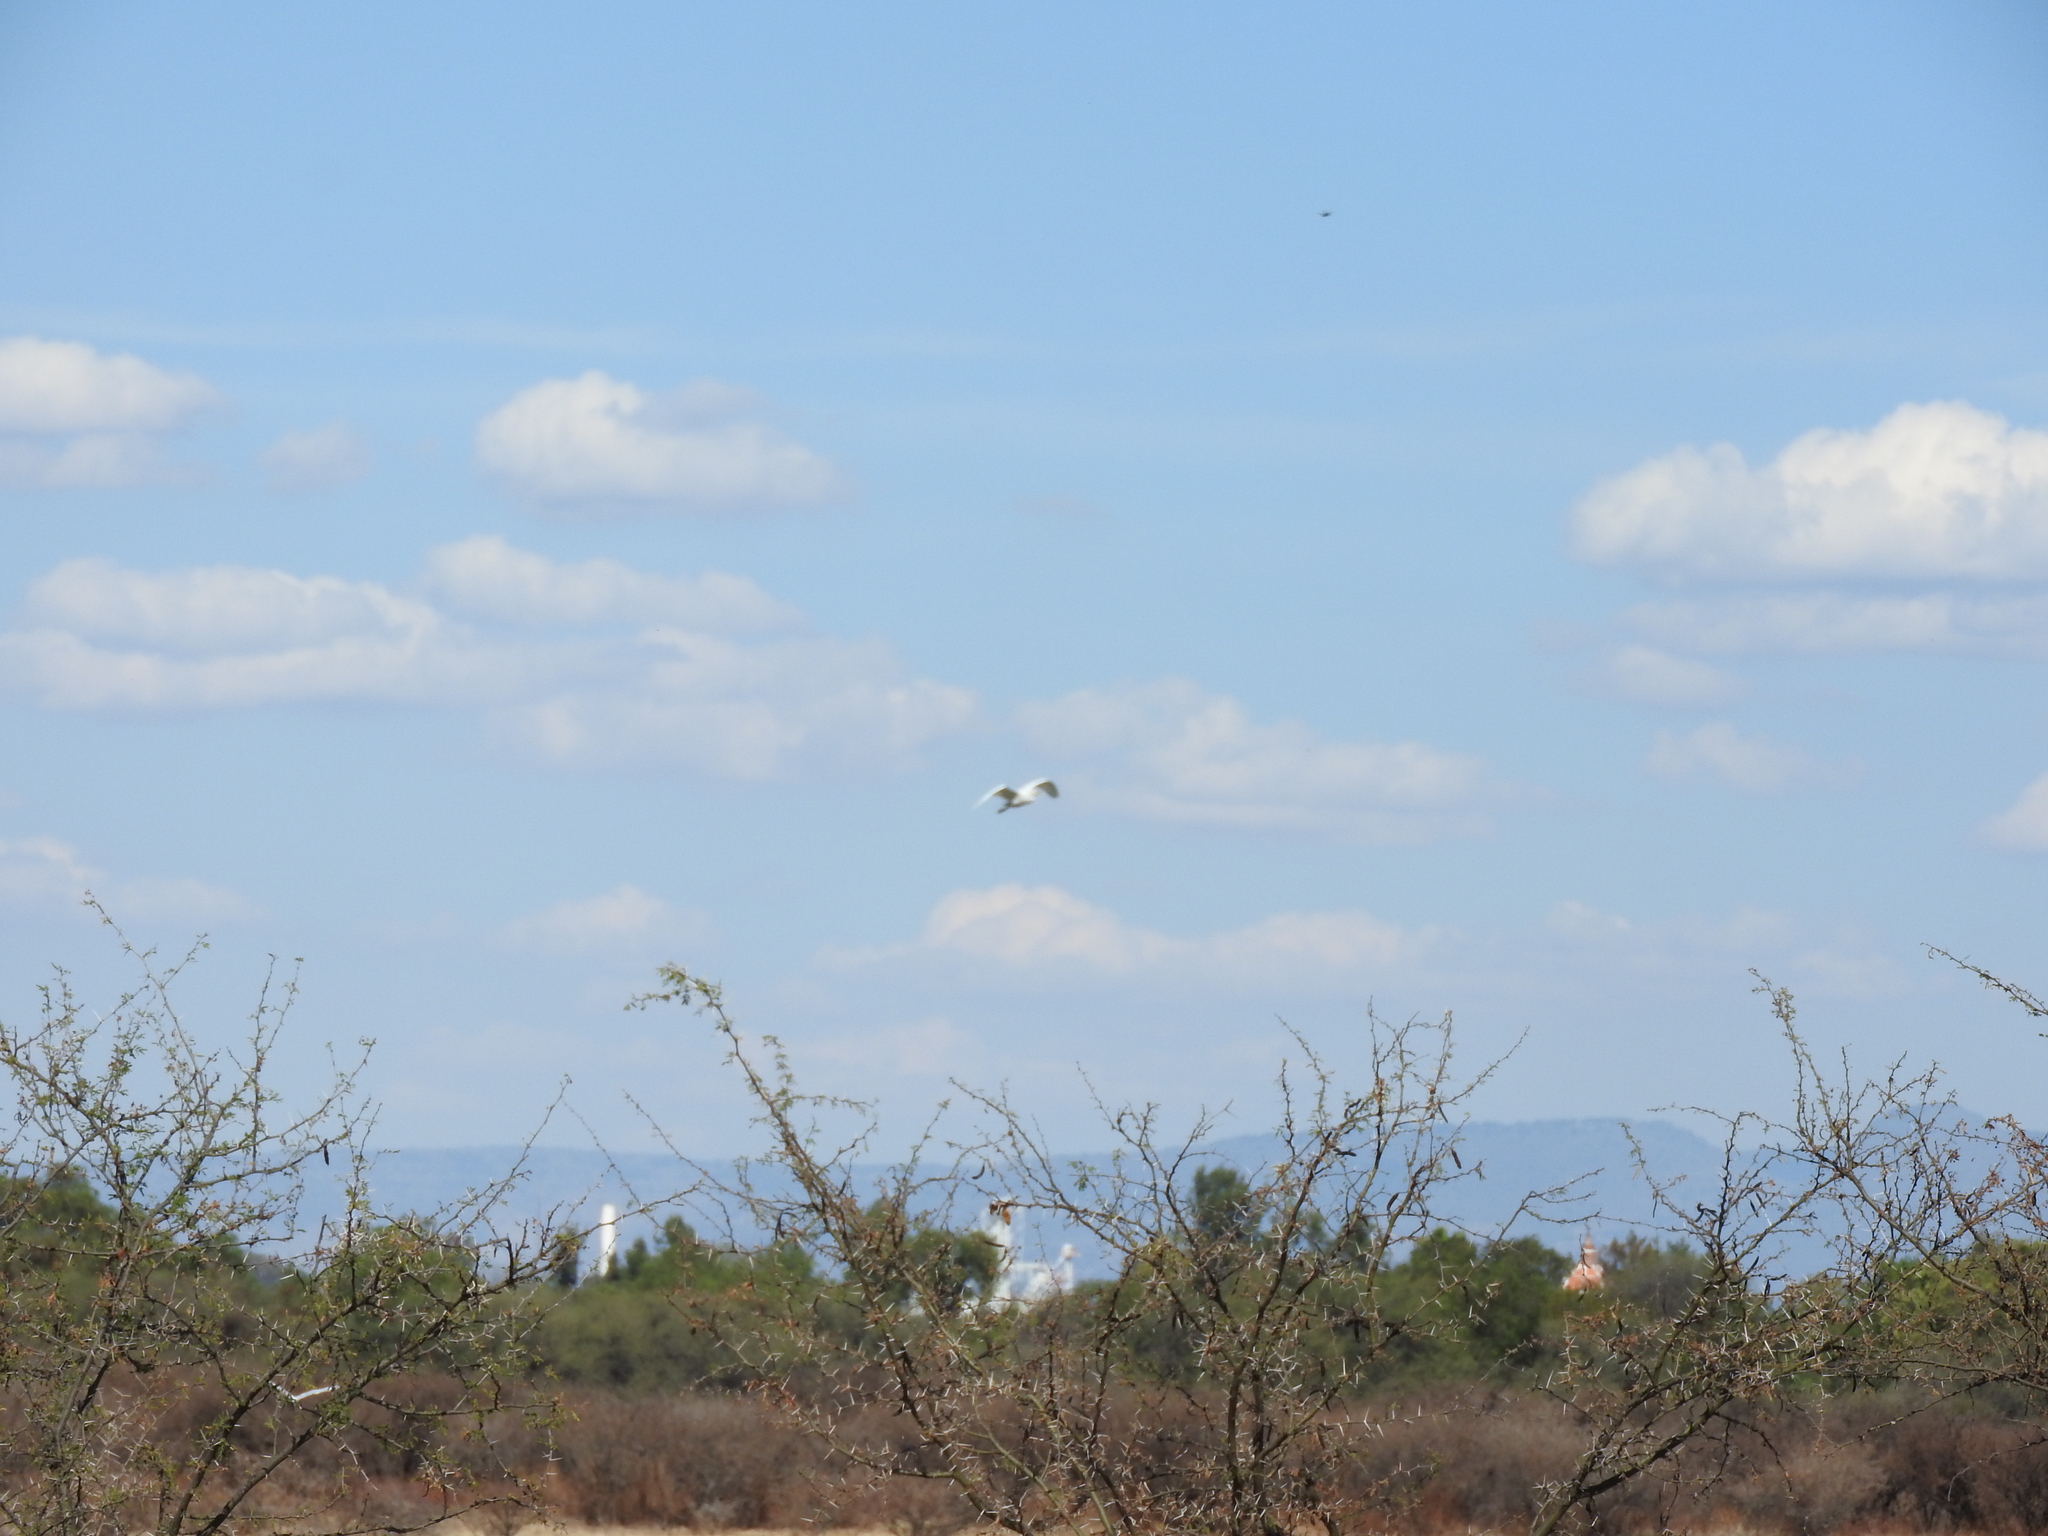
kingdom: Animalia
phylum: Chordata
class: Aves
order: Pelecaniformes
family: Ardeidae
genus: Bubulcus
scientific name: Bubulcus ibis
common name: Cattle egret
